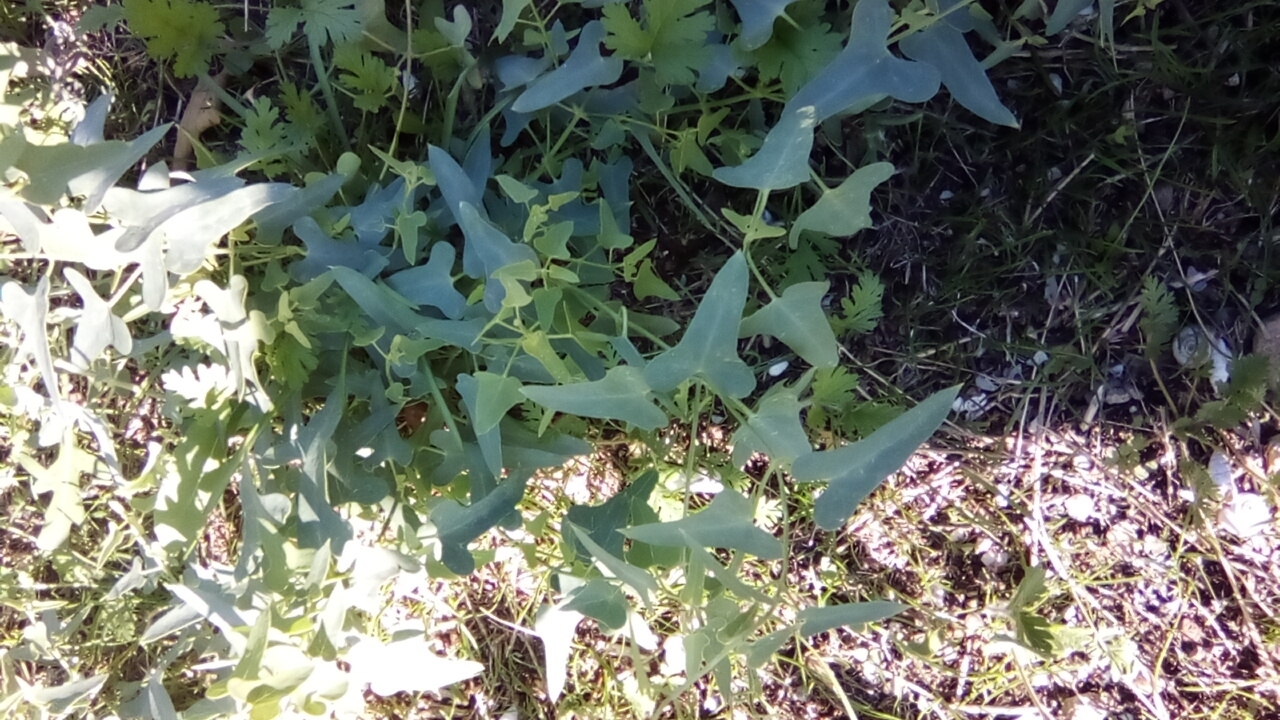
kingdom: Plantae
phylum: Tracheophyta
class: Magnoliopsida
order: Gentianales
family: Apocynaceae
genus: Cynanchum
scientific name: Cynanchum acutum
